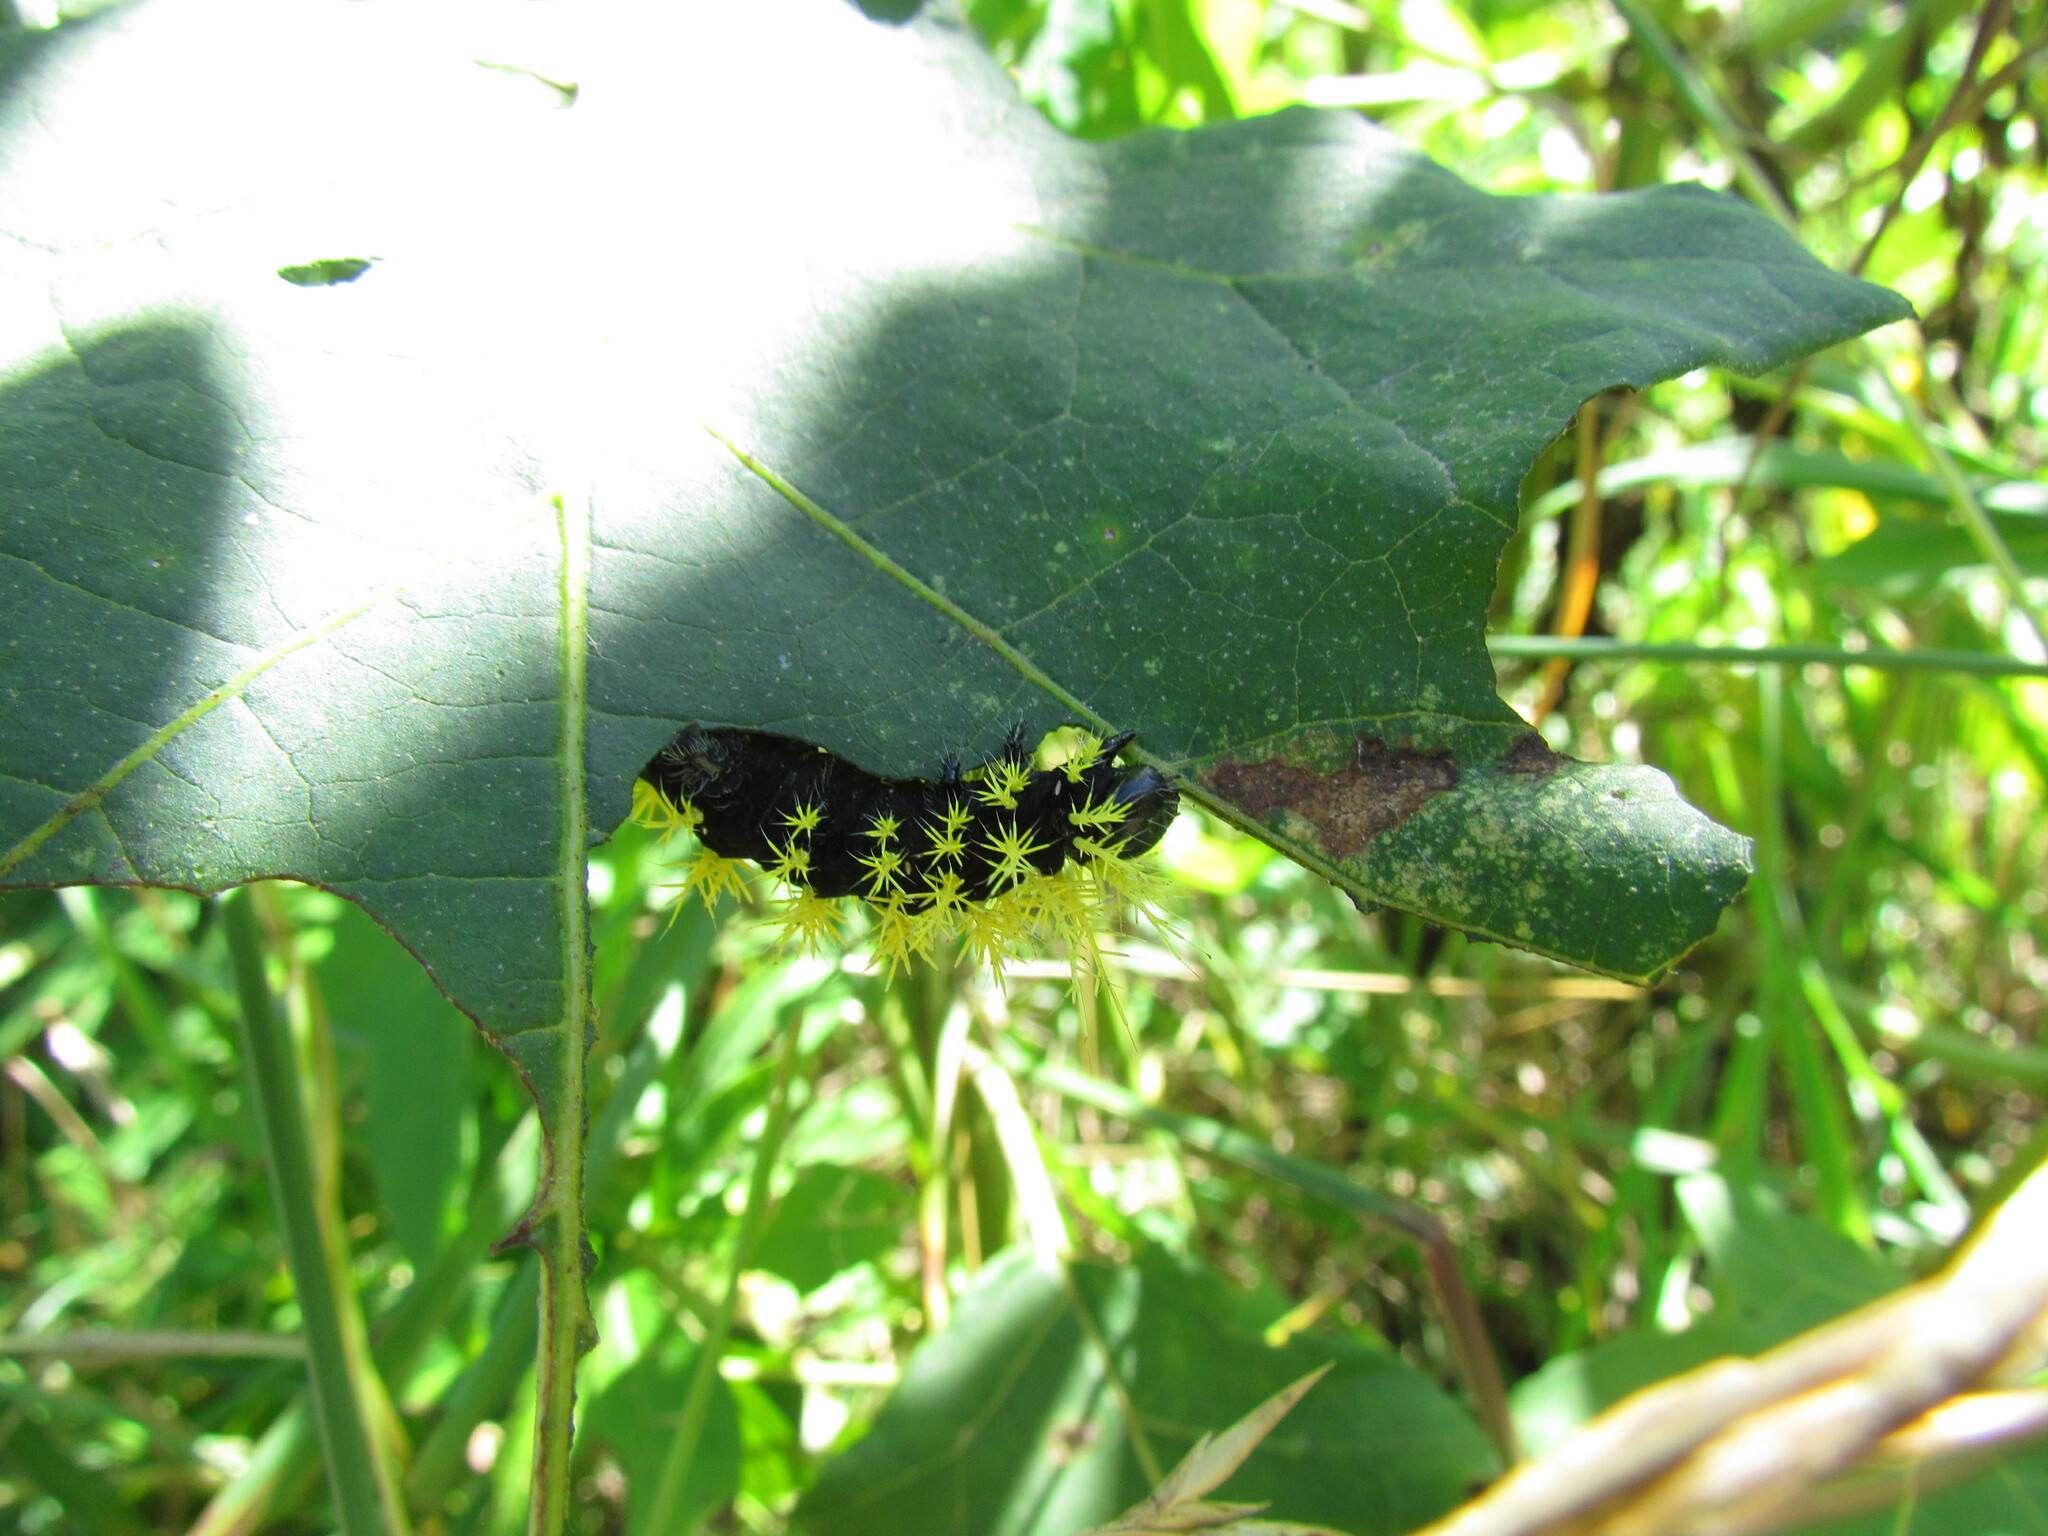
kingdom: Animalia
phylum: Arthropoda
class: Insecta
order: Lepidoptera
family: Saturniidae
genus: Leucanella
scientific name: Leucanella viridescens
